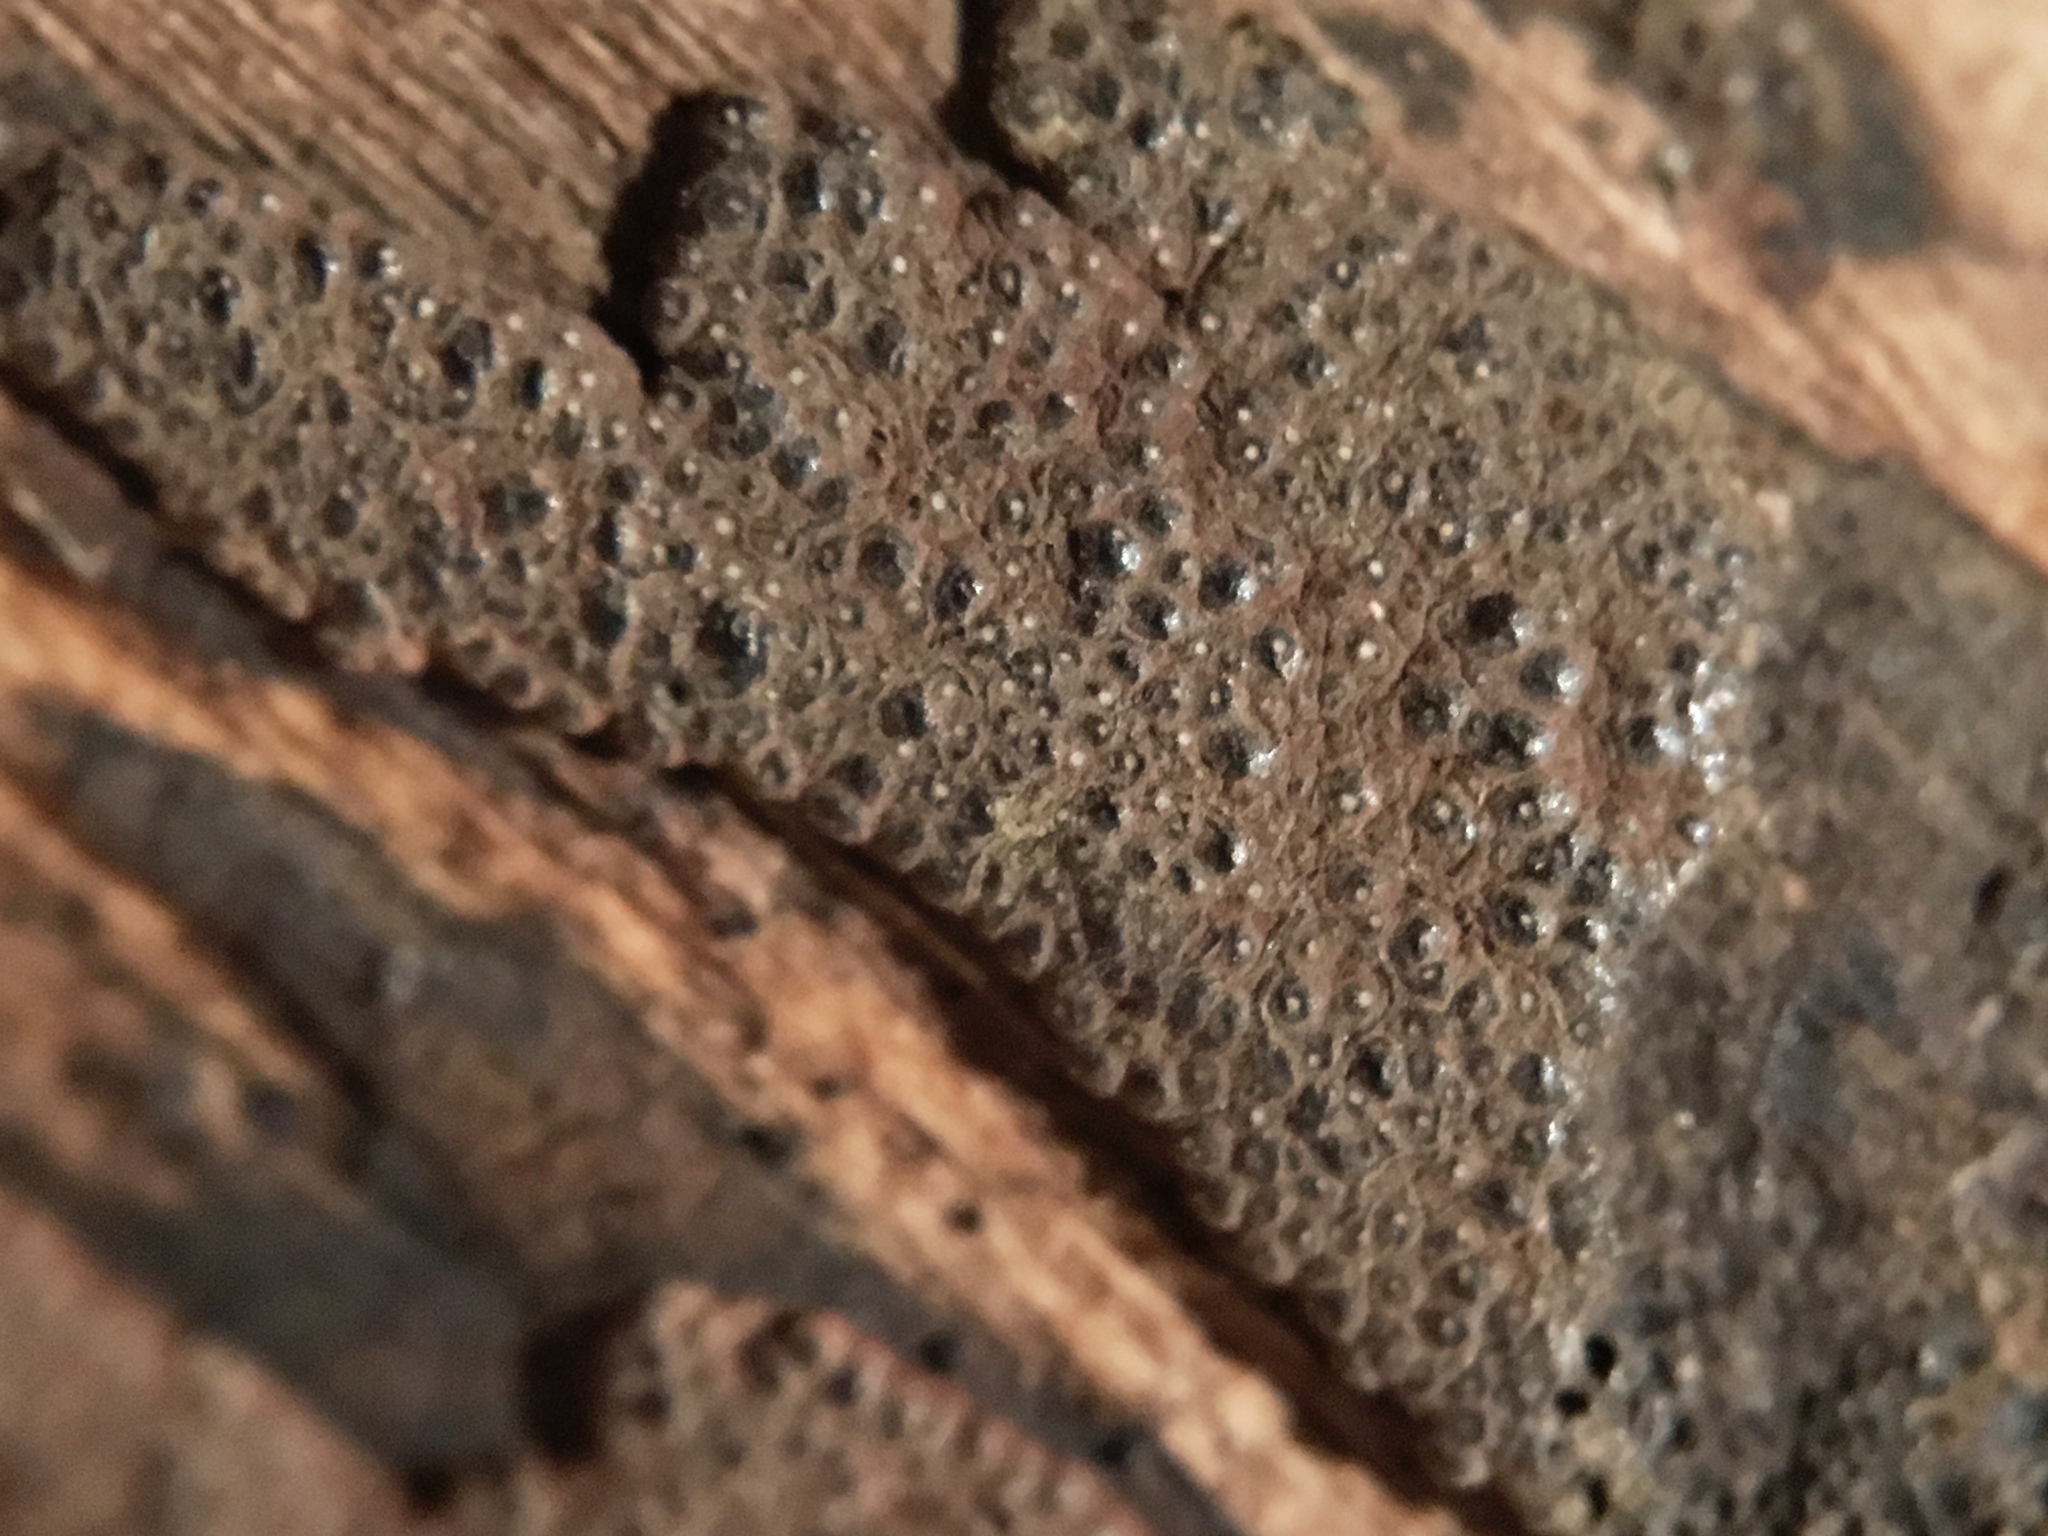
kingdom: Fungi
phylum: Ascomycota
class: Sordariomycetes
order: Xylariales
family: Hypoxylaceae
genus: Hypoxylon
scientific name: Hypoxylon perforatum
